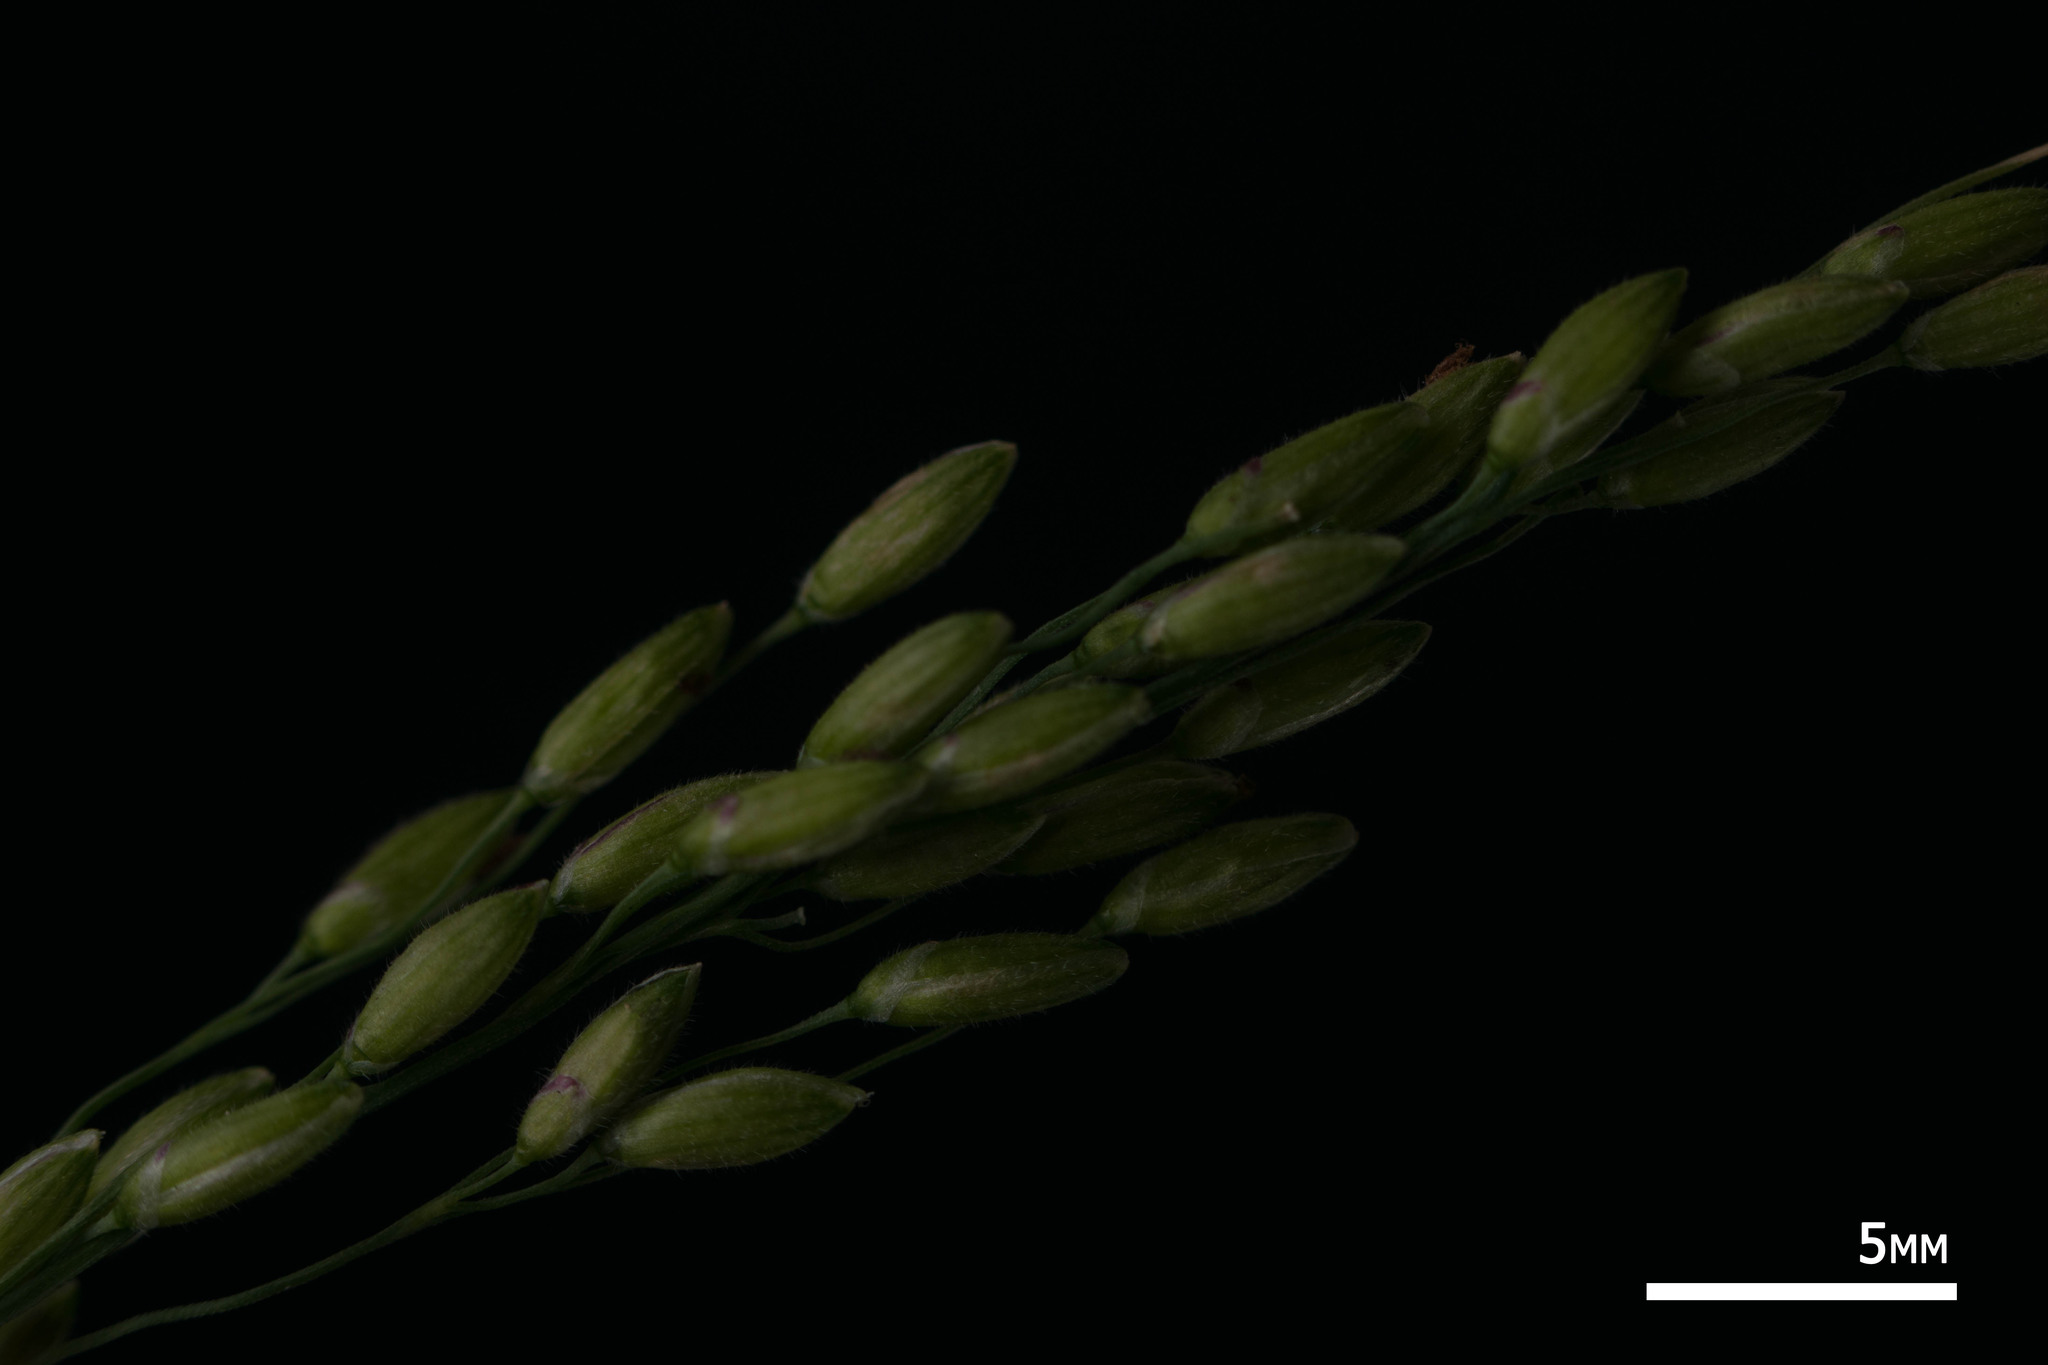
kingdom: Plantae
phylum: Tracheophyta
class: Liliopsida
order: Poales
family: Poaceae
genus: Megathyrsus
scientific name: Megathyrsus maximus
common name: Guineagrass
